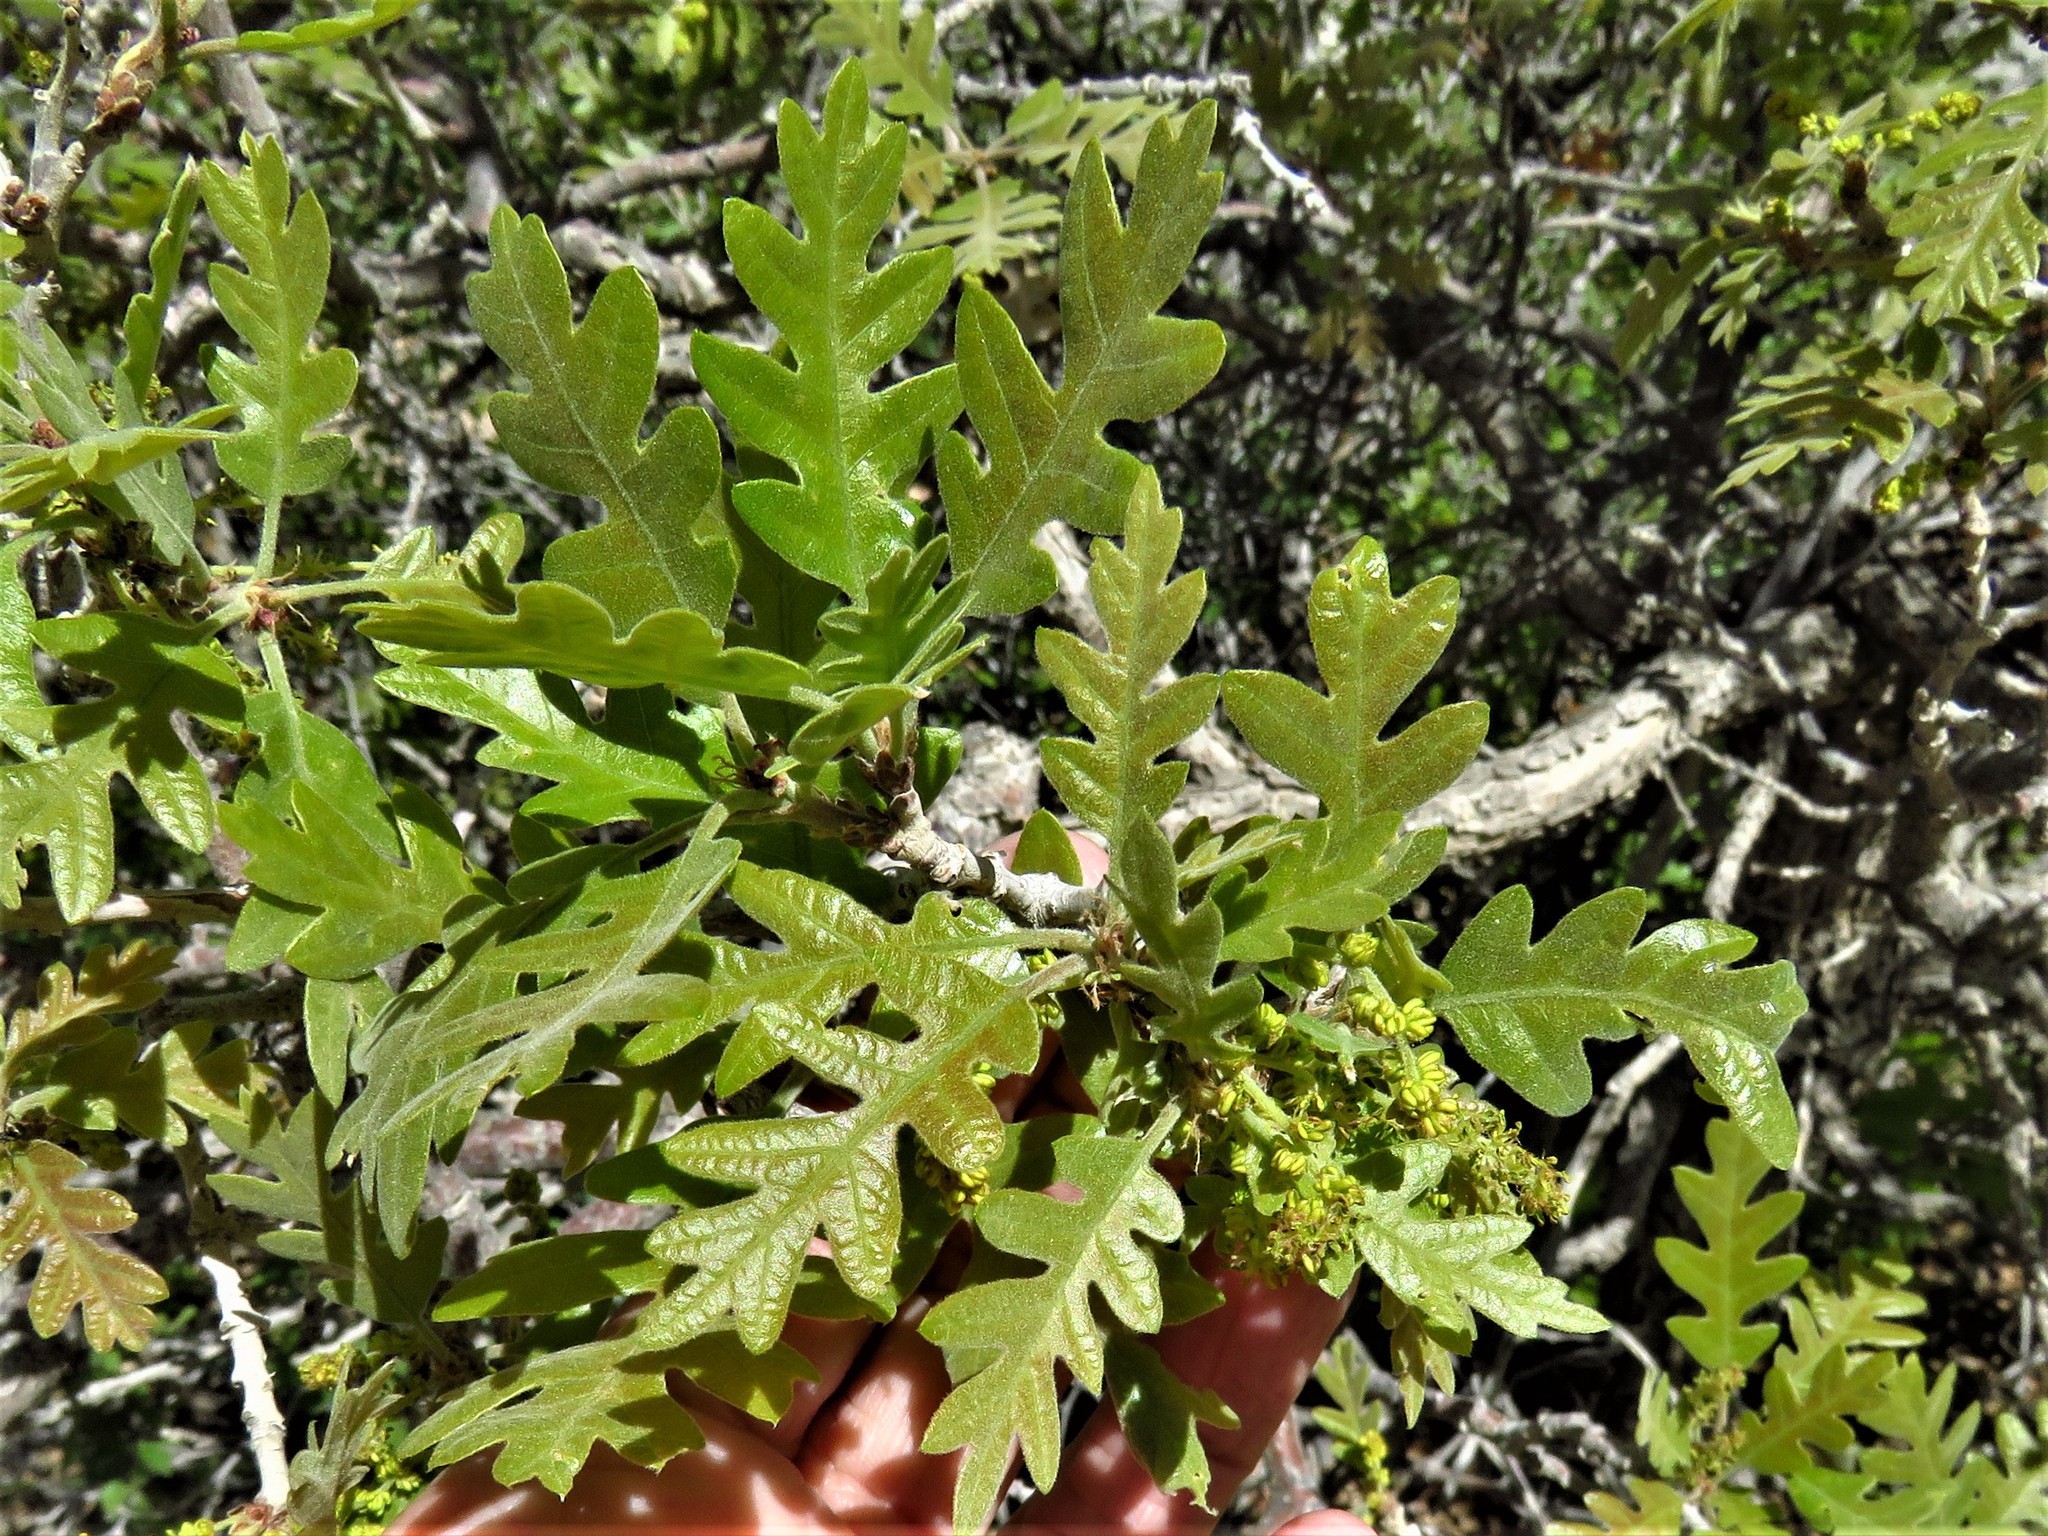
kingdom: Plantae
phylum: Tracheophyta
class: Magnoliopsida
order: Fagales
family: Fagaceae
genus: Quercus
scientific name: Quercus gambelii
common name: Gambel oak
